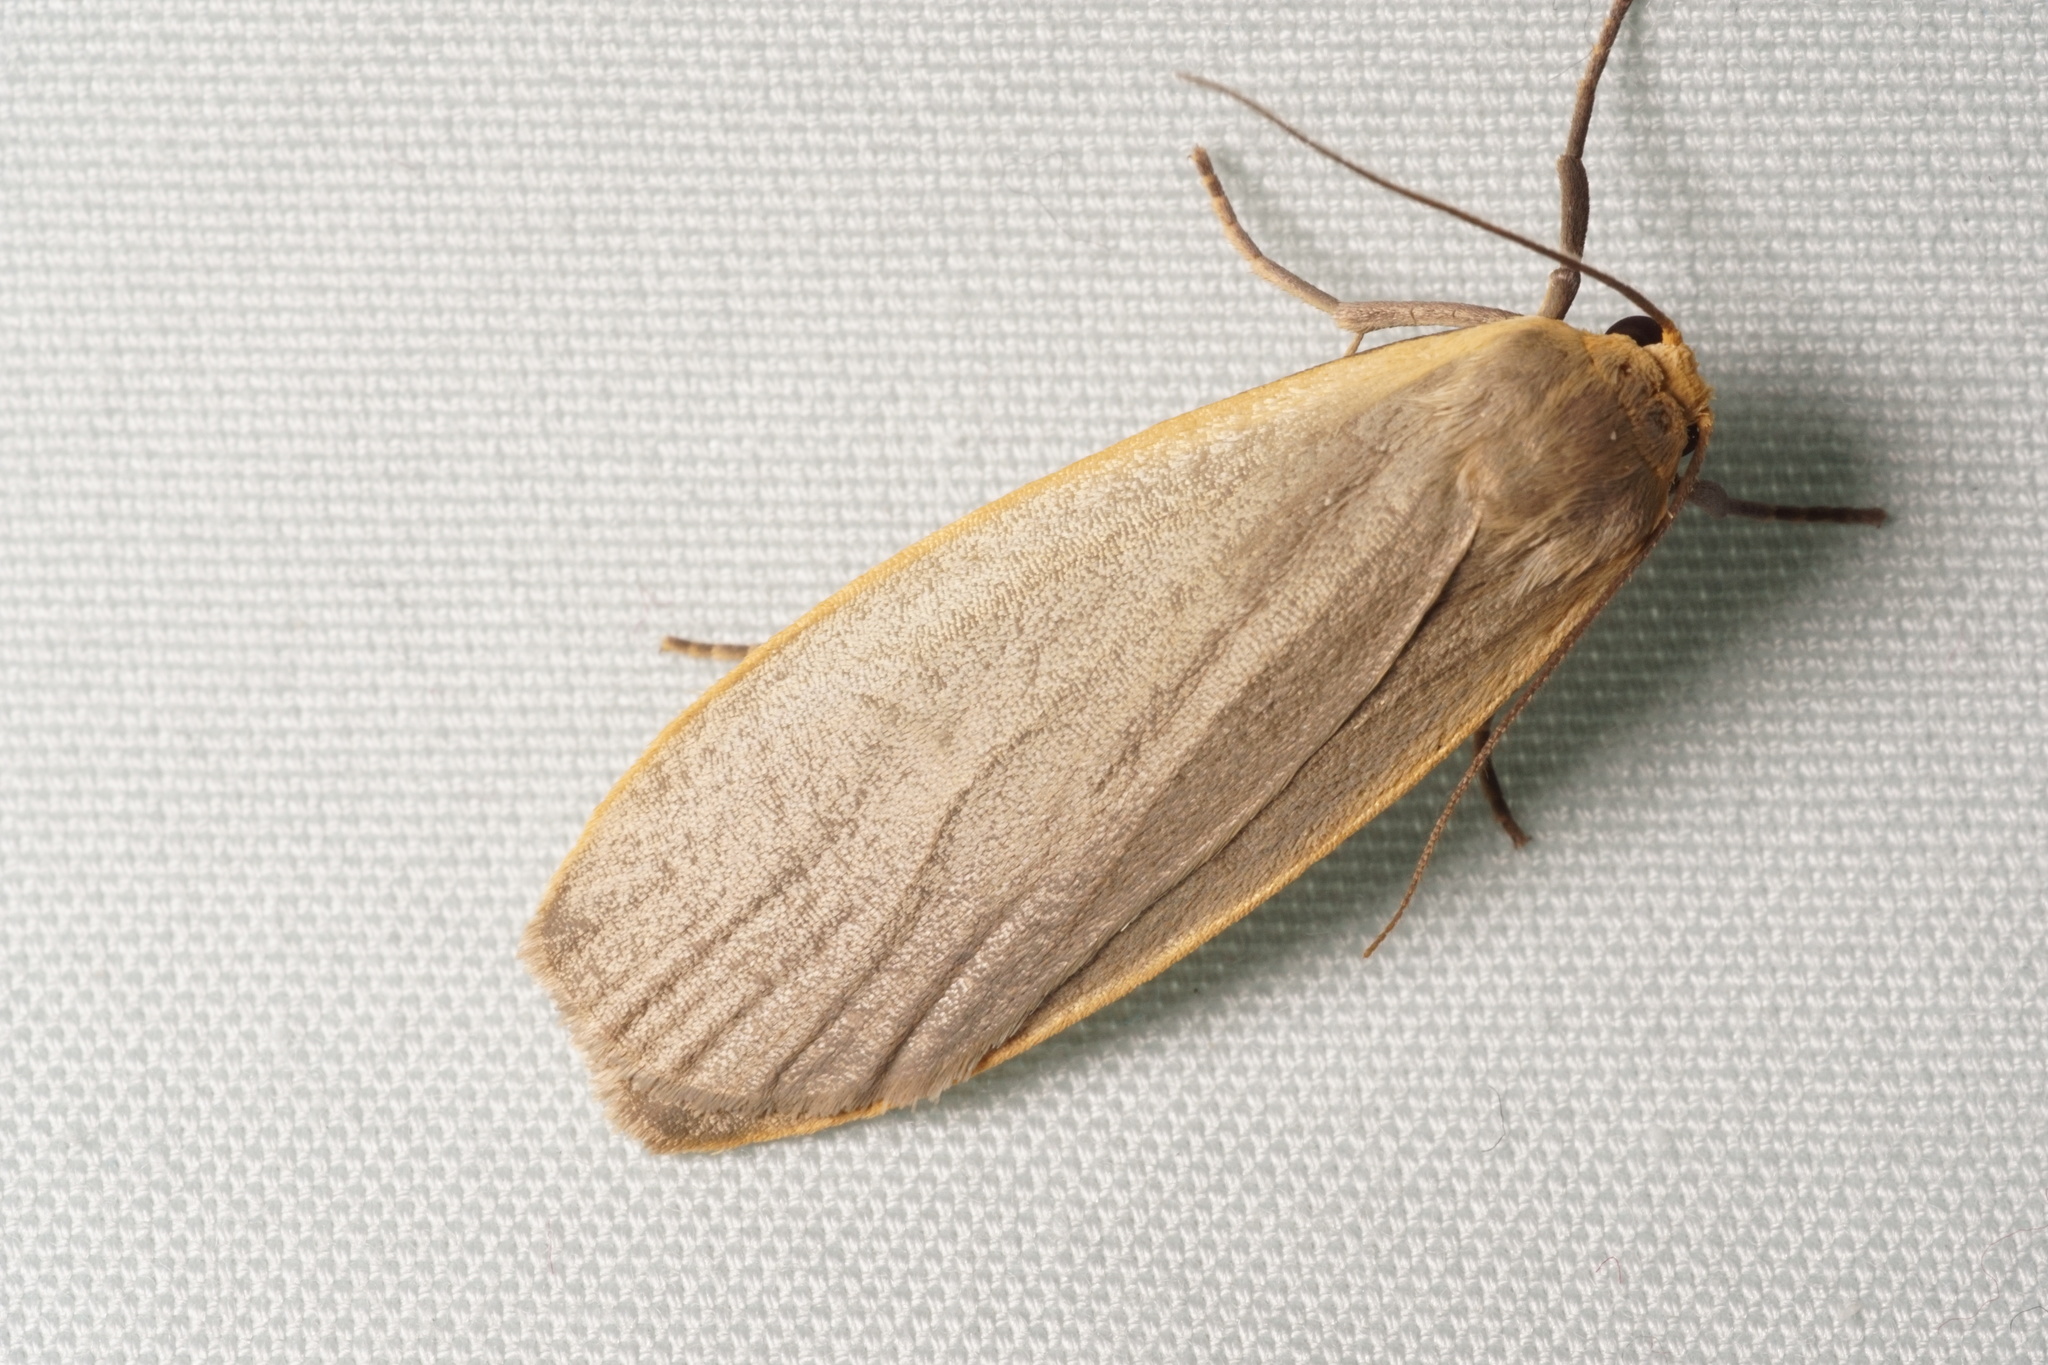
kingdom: Animalia
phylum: Arthropoda
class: Insecta
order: Lepidoptera
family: Erebidae
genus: Collita
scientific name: Collita griseola
